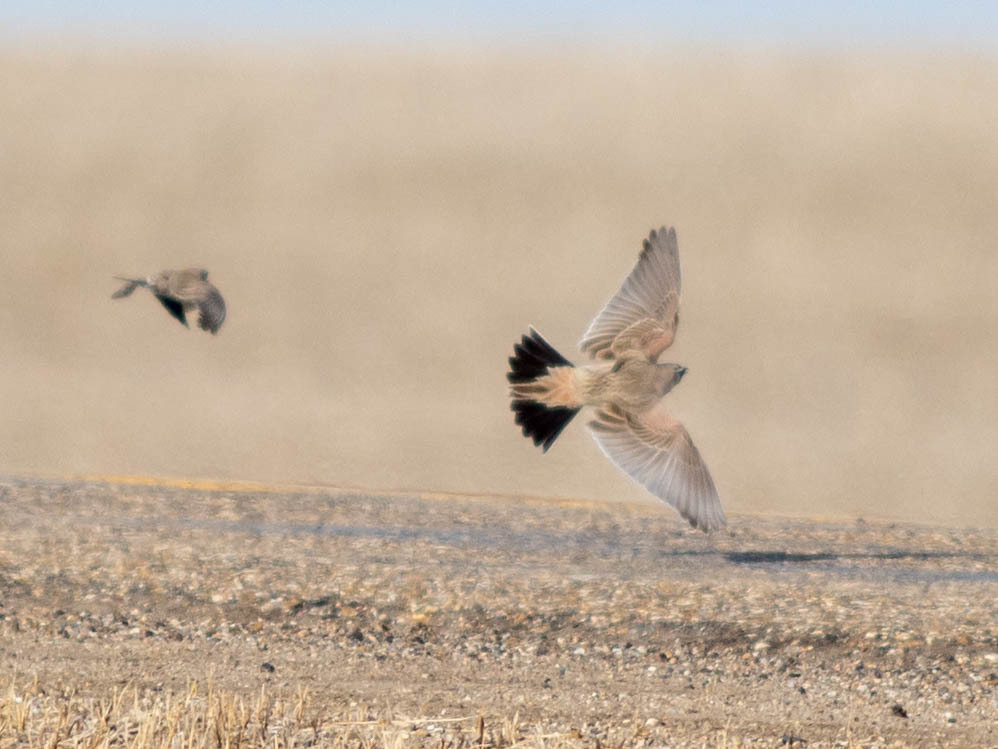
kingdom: Animalia
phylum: Chordata
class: Aves
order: Passeriformes
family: Alaudidae
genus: Eremophila
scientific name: Eremophila alpestris
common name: Horned lark
